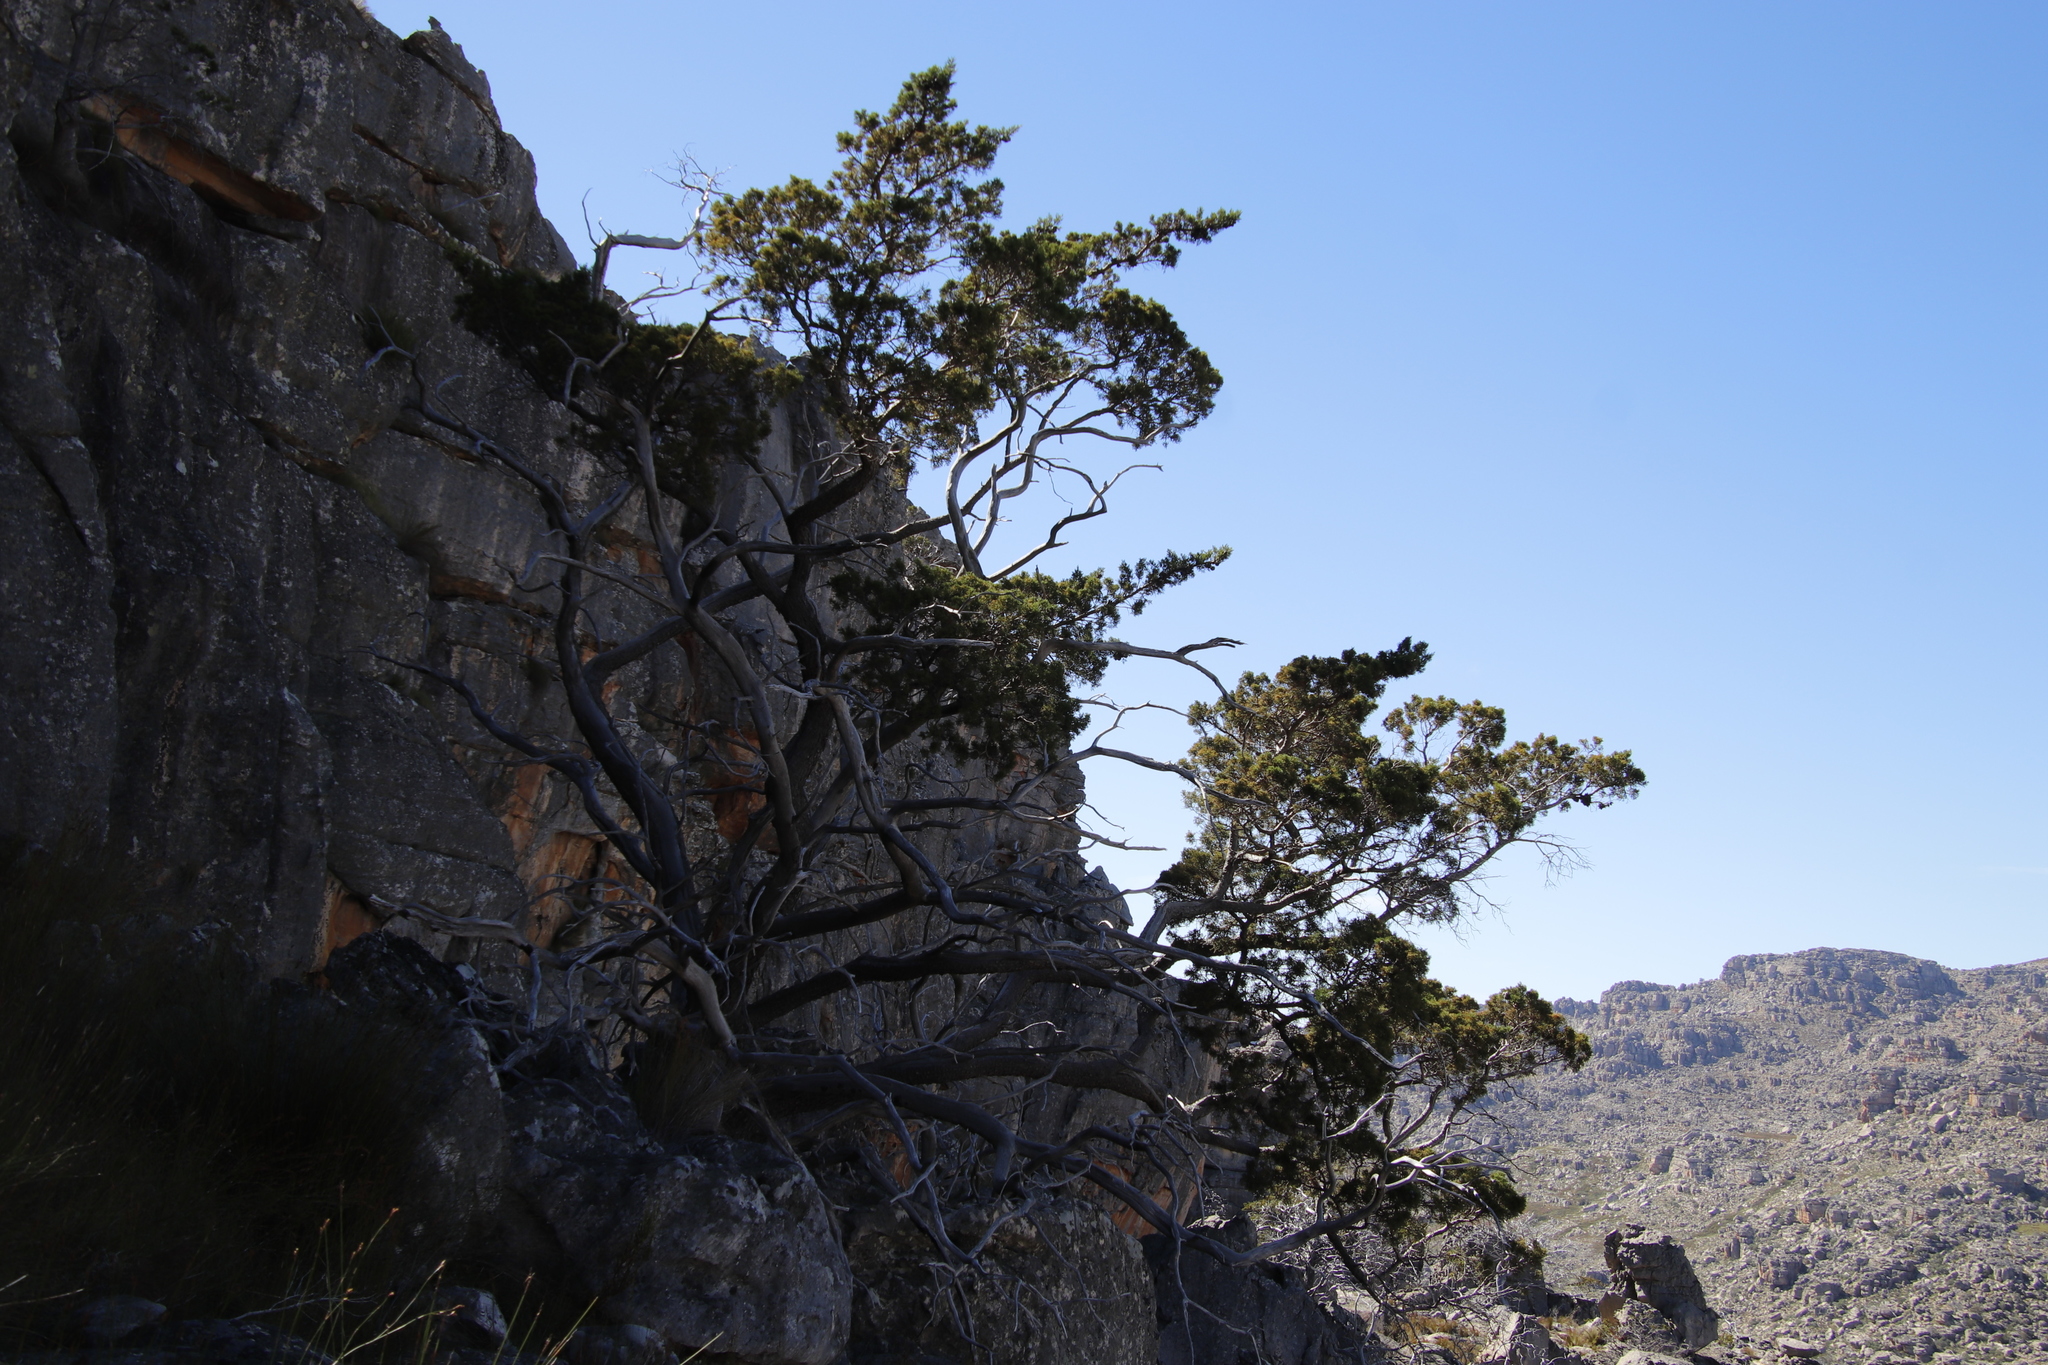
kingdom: Plantae
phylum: Tracheophyta
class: Pinopsida
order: Pinales
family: Cupressaceae
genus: Widdringtonia
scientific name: Widdringtonia nodiflora
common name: Cape cypress
